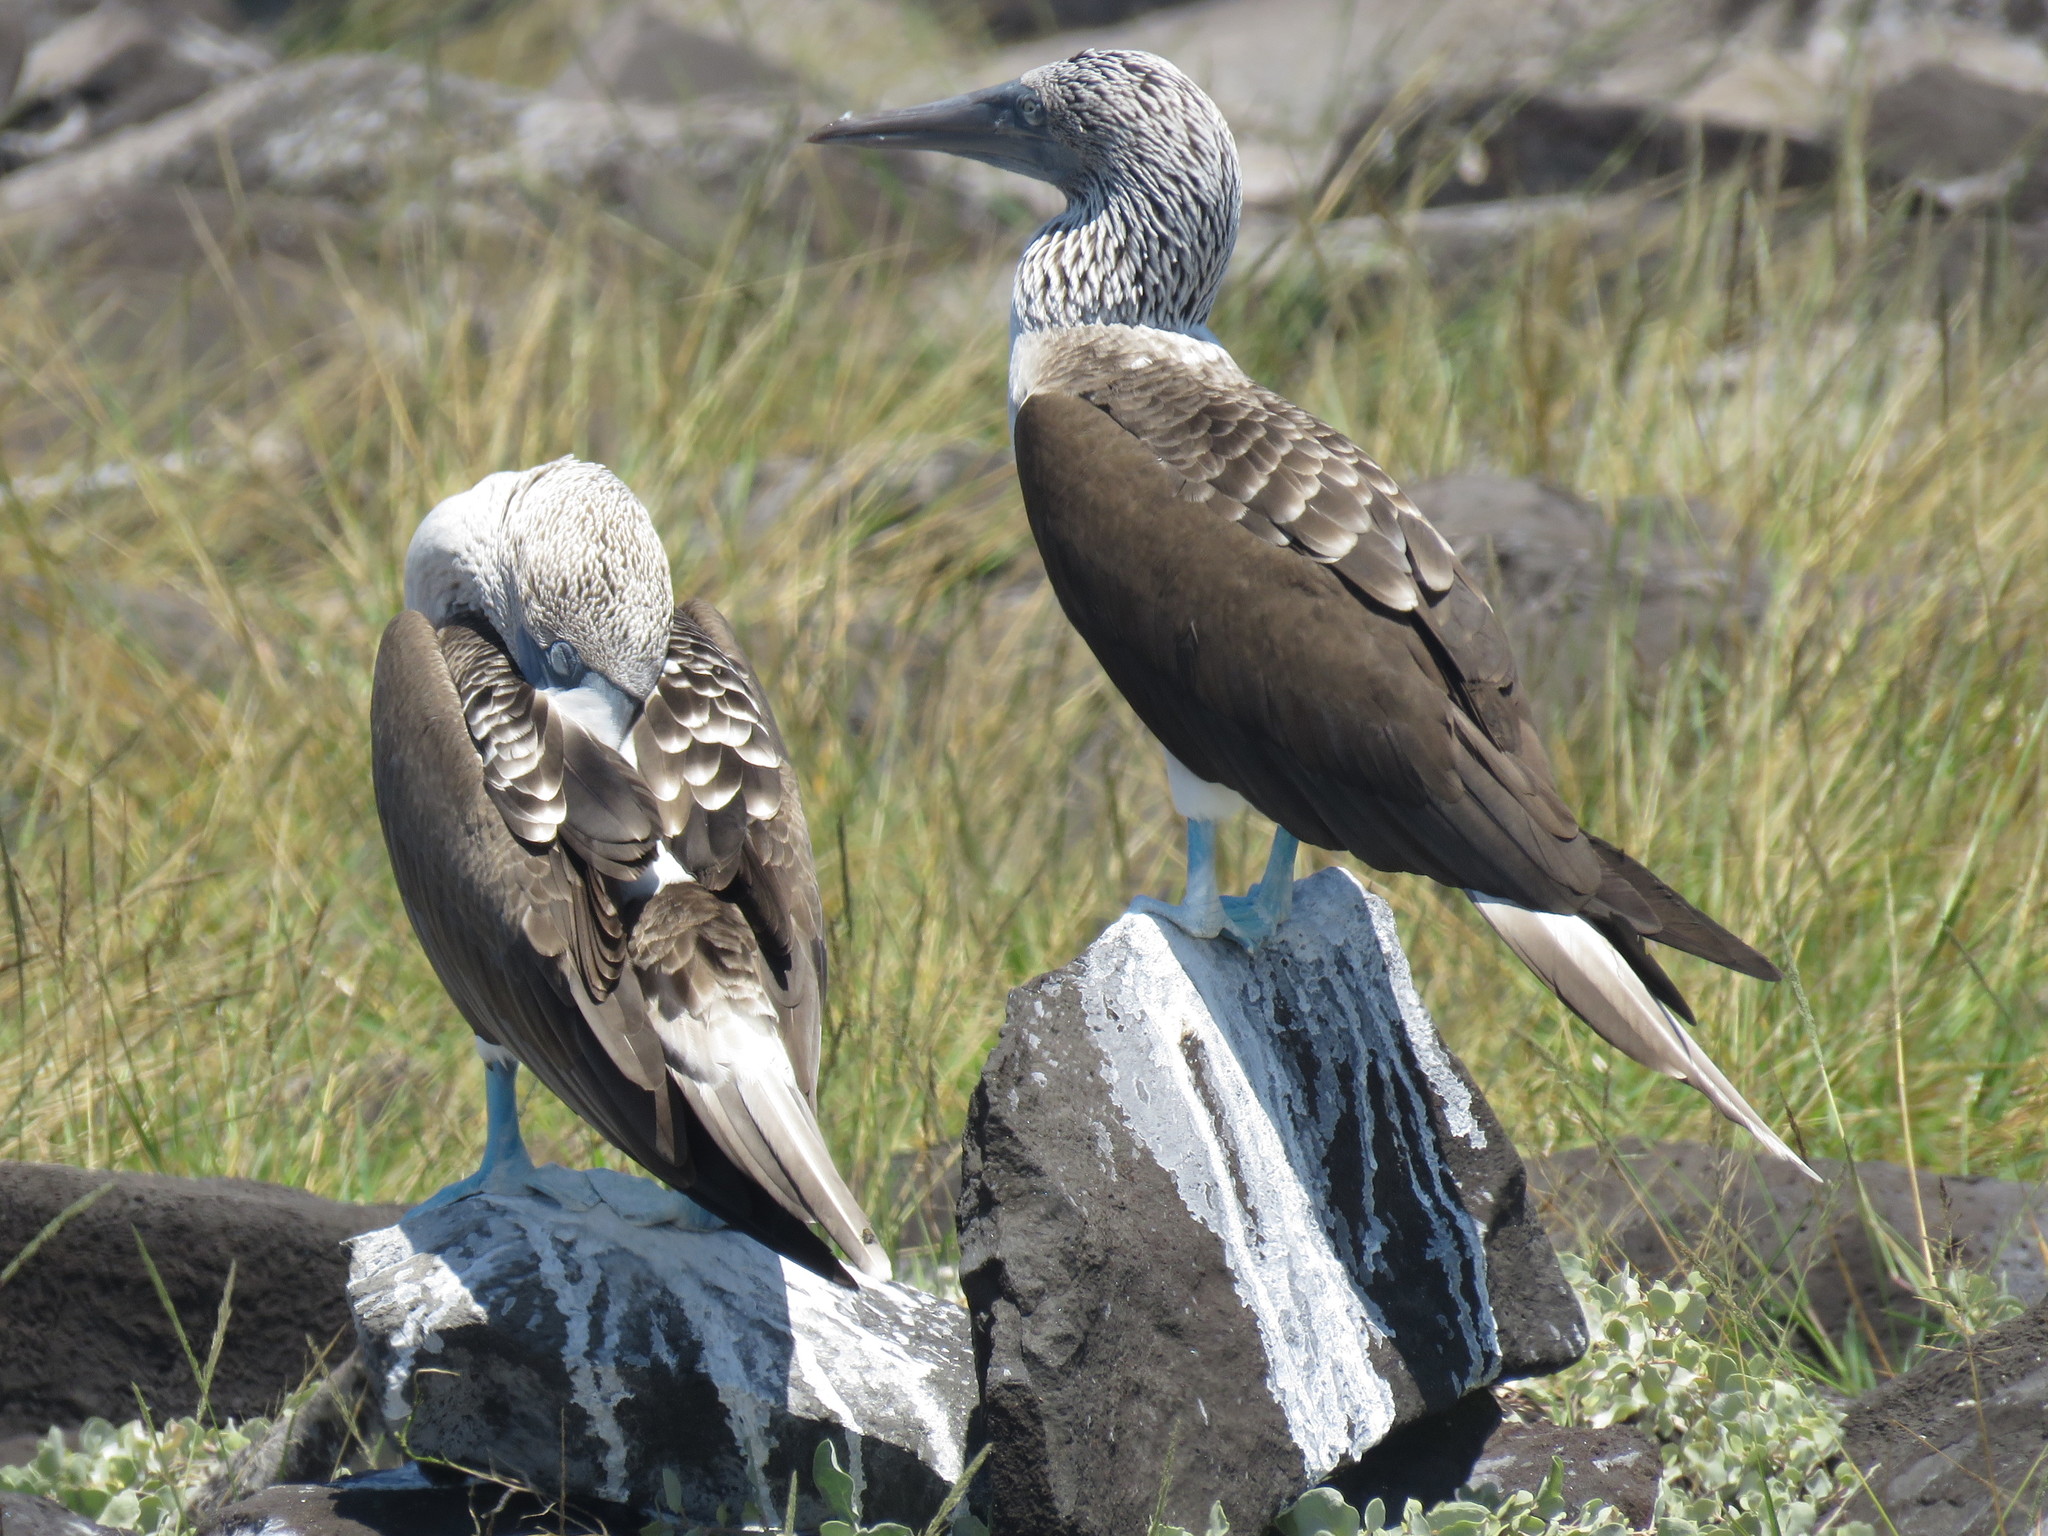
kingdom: Animalia
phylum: Chordata
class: Aves
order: Suliformes
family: Sulidae
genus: Sula
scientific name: Sula nebouxii
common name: Blue-footed booby
